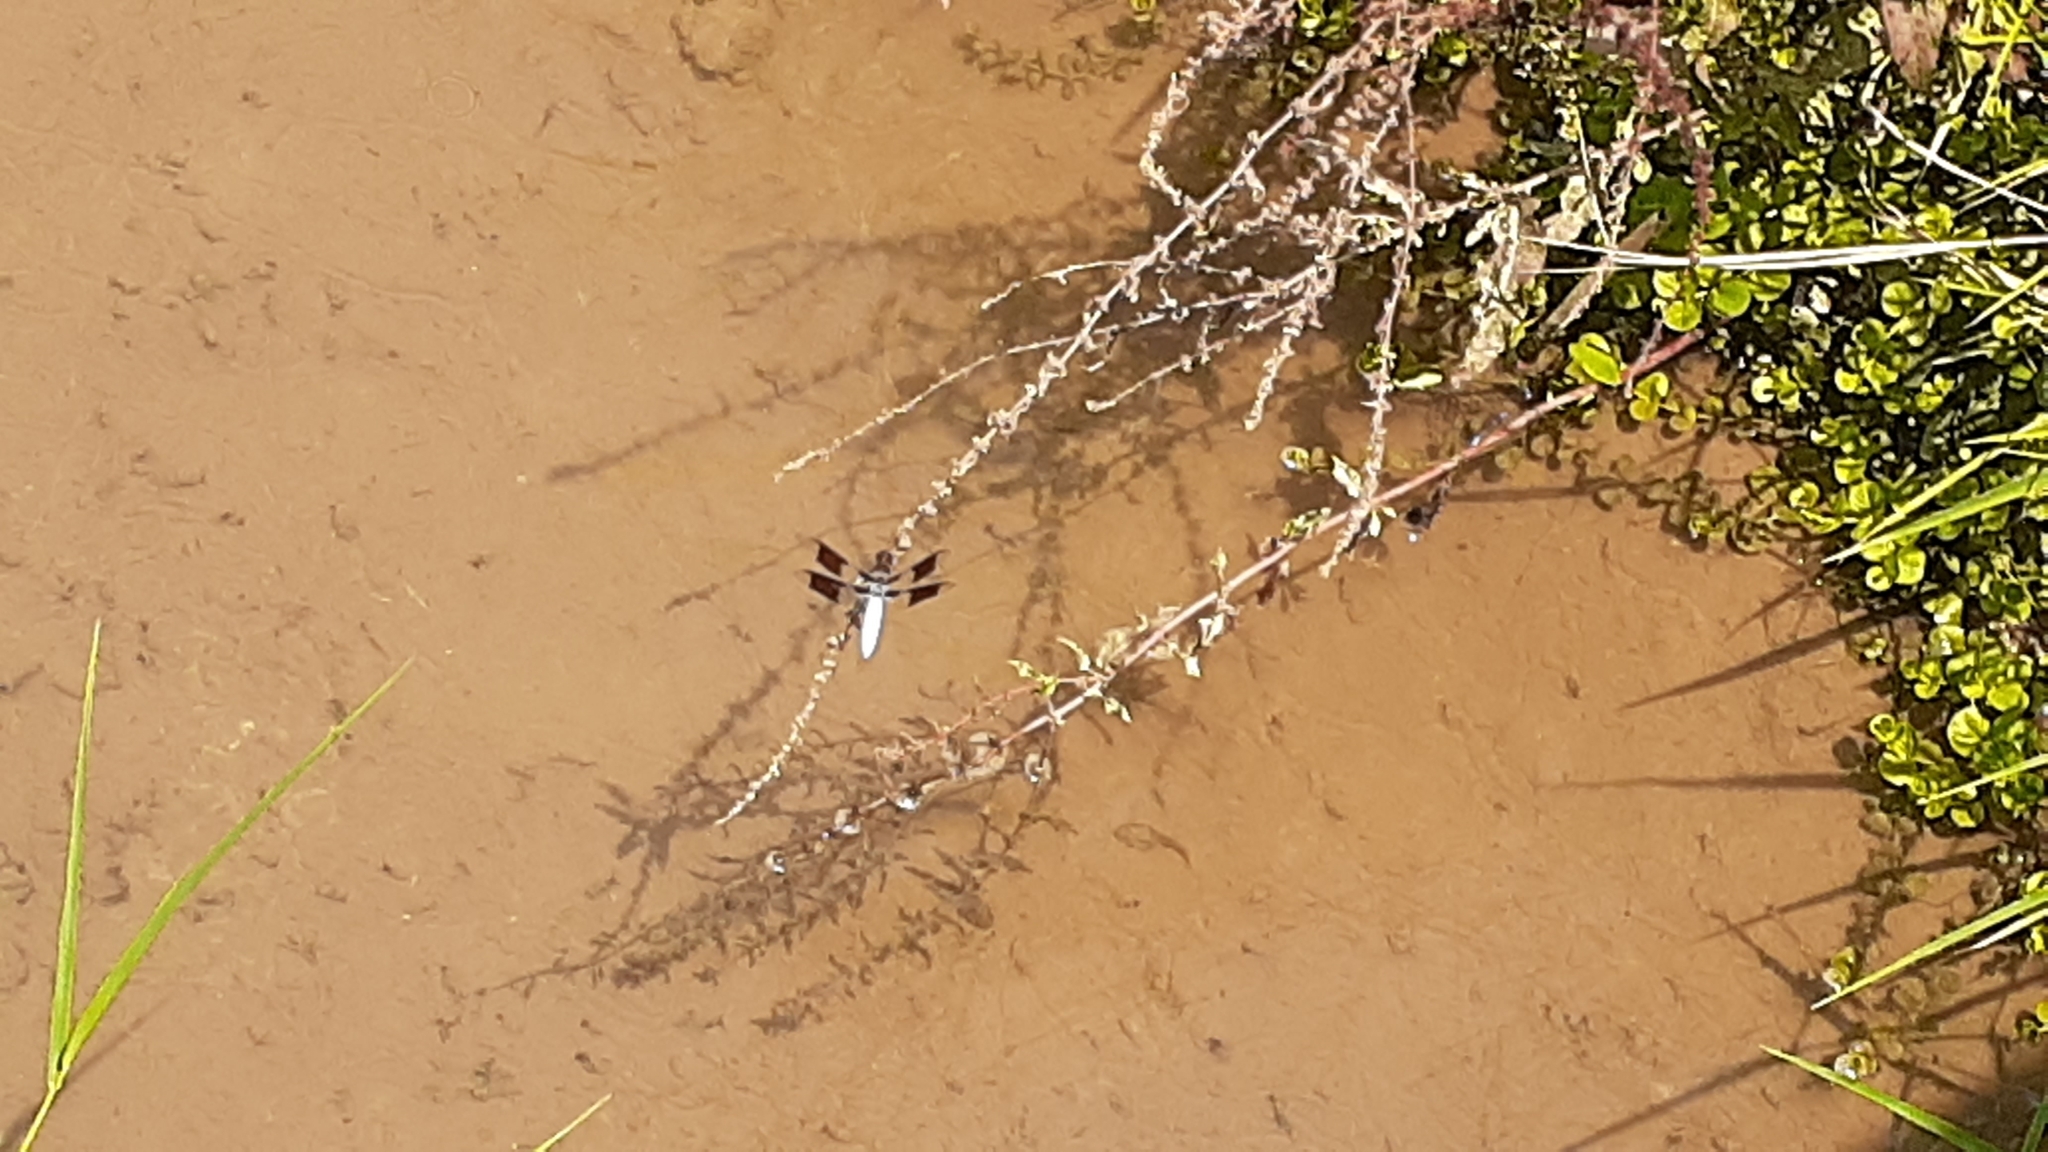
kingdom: Animalia
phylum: Arthropoda
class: Insecta
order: Odonata
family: Libellulidae
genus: Plathemis
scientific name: Plathemis lydia
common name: Common whitetail
